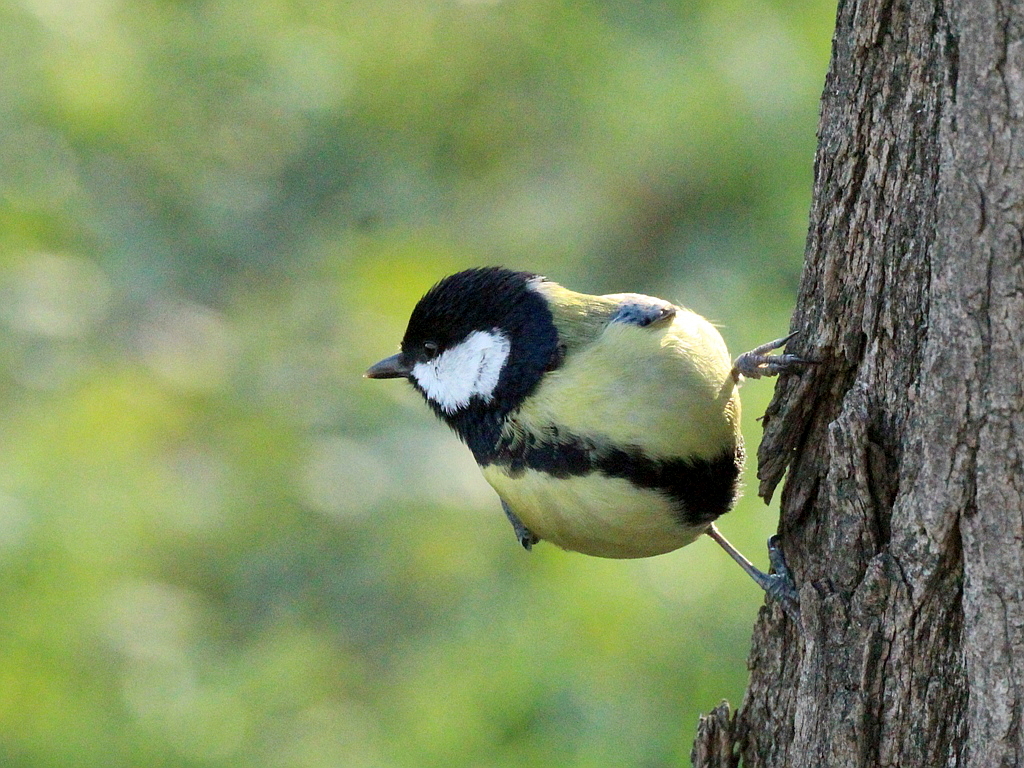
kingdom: Animalia
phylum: Chordata
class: Aves
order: Passeriformes
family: Paridae
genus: Parus
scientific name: Parus major
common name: Great tit
